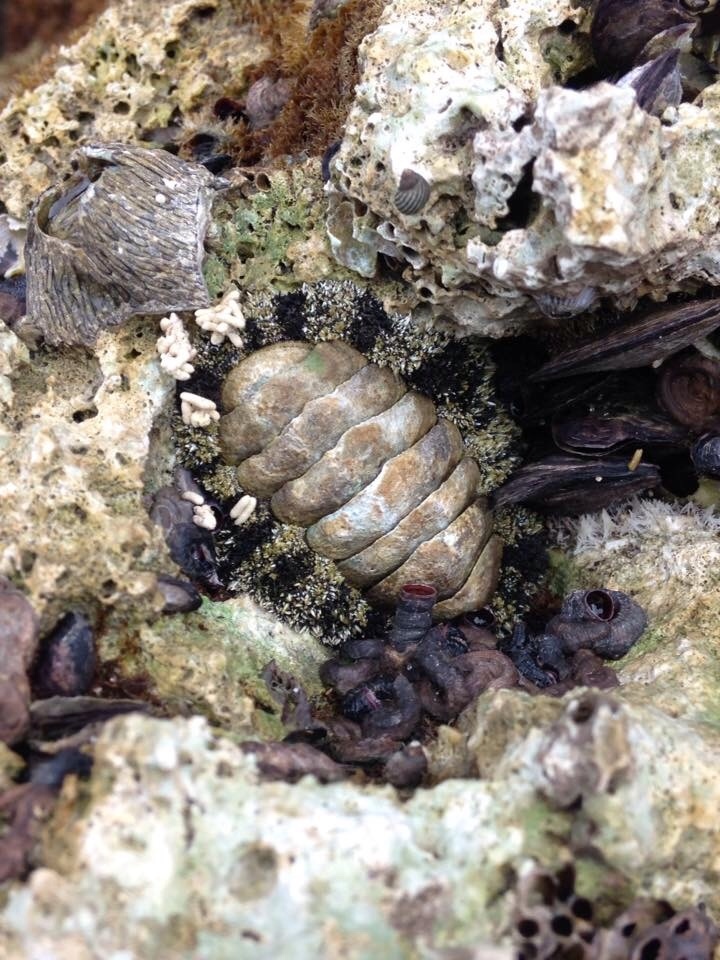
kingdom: Animalia
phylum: Mollusca
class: Polyplacophora
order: Chitonida
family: Chitonidae
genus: Acanthopleura
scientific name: Acanthopleura granulata
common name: West indian fuzzy chiton
